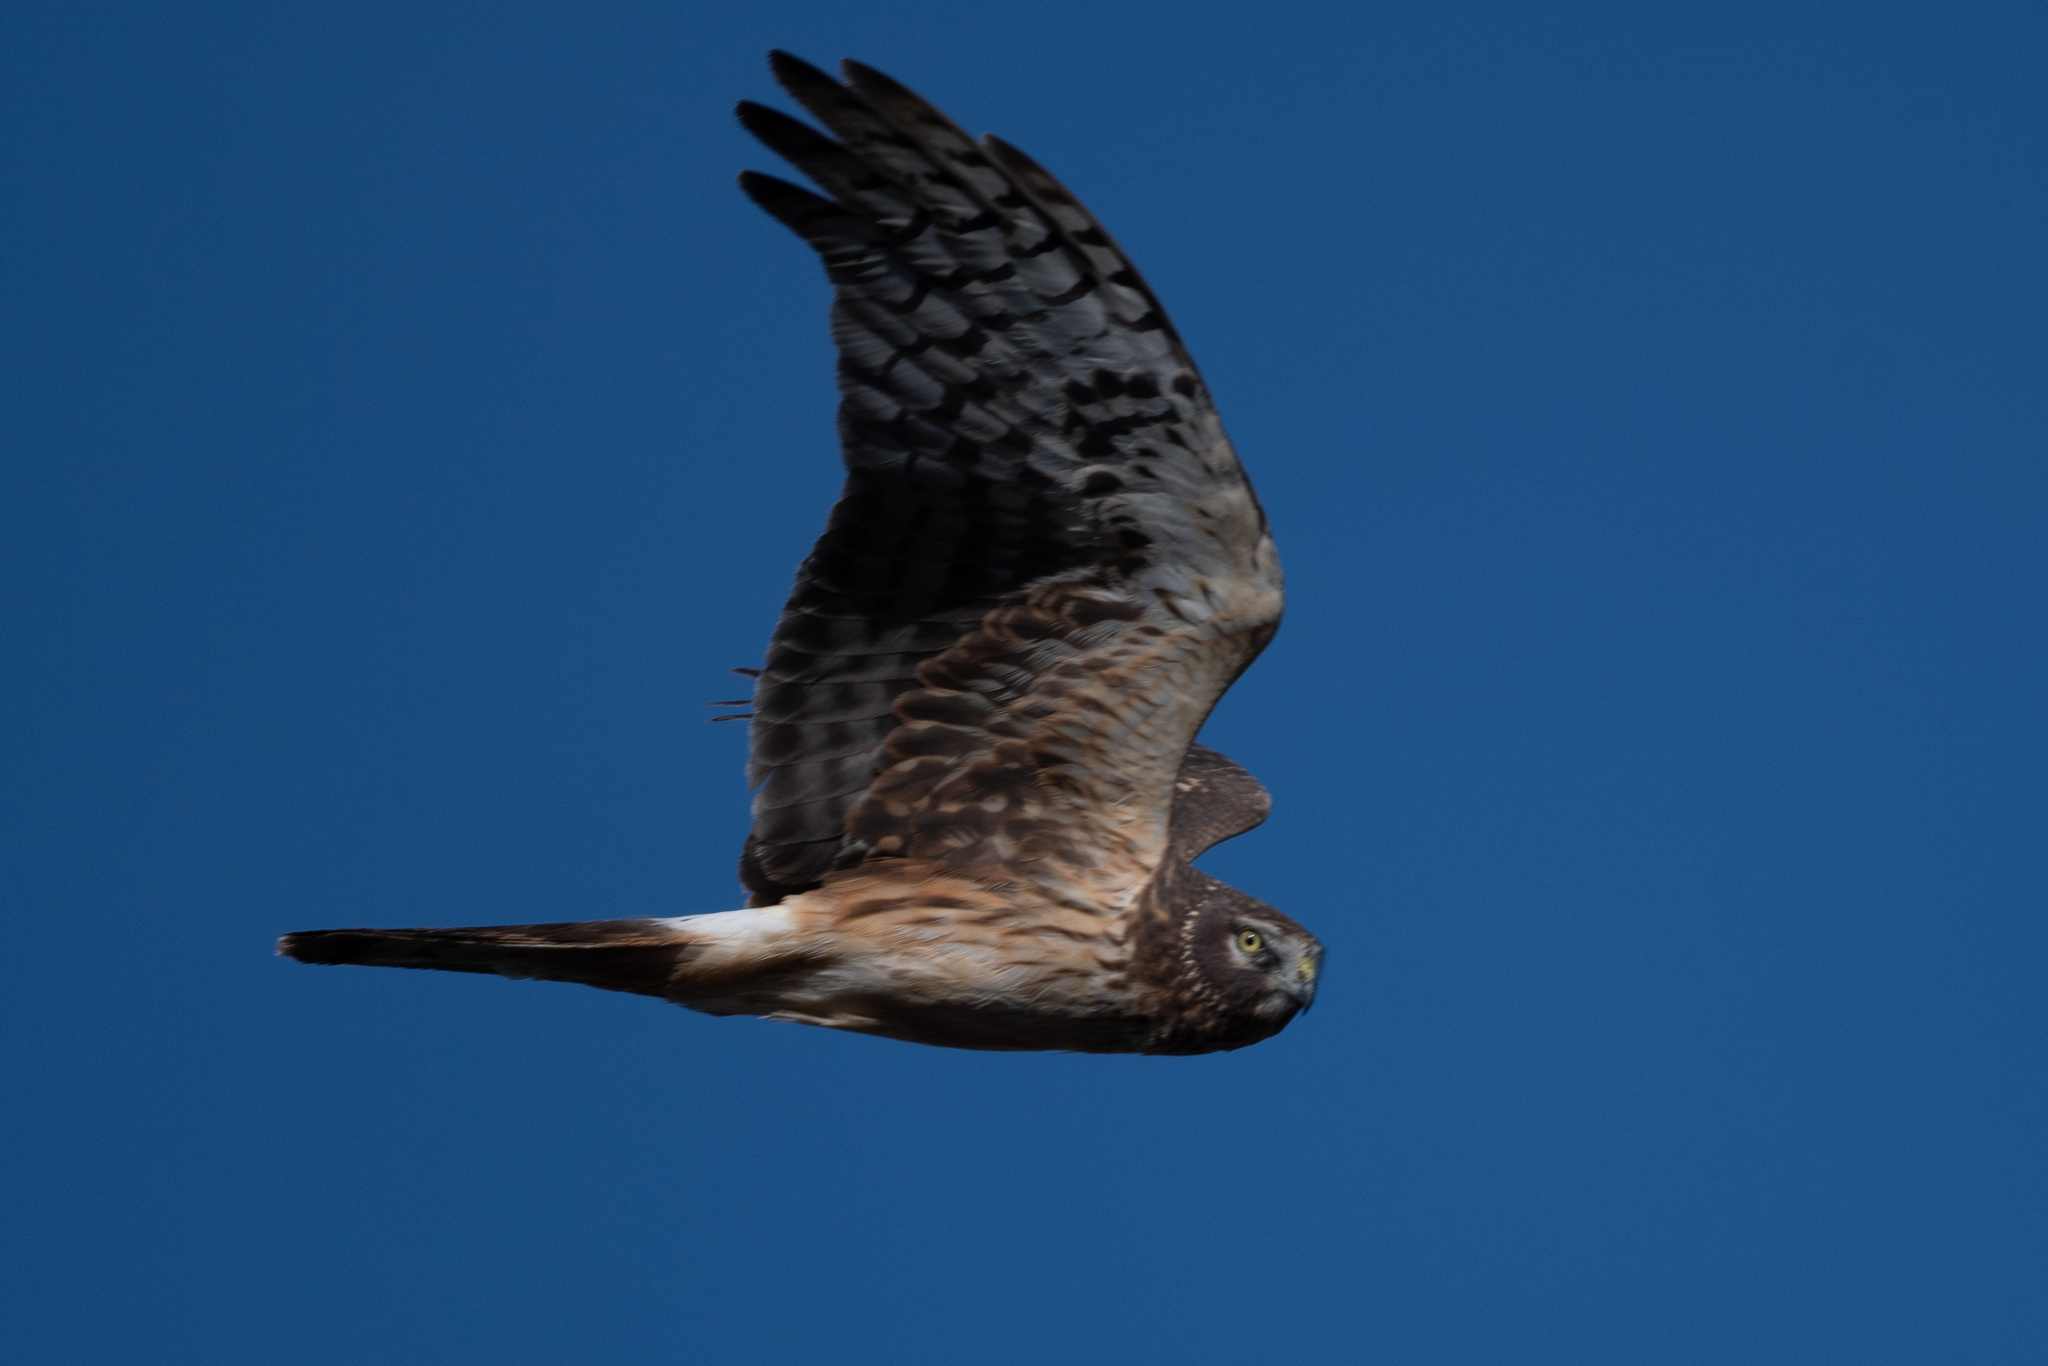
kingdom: Animalia
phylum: Chordata
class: Aves
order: Accipitriformes
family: Accipitridae
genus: Circus
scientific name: Circus cyaneus
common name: Hen harrier
